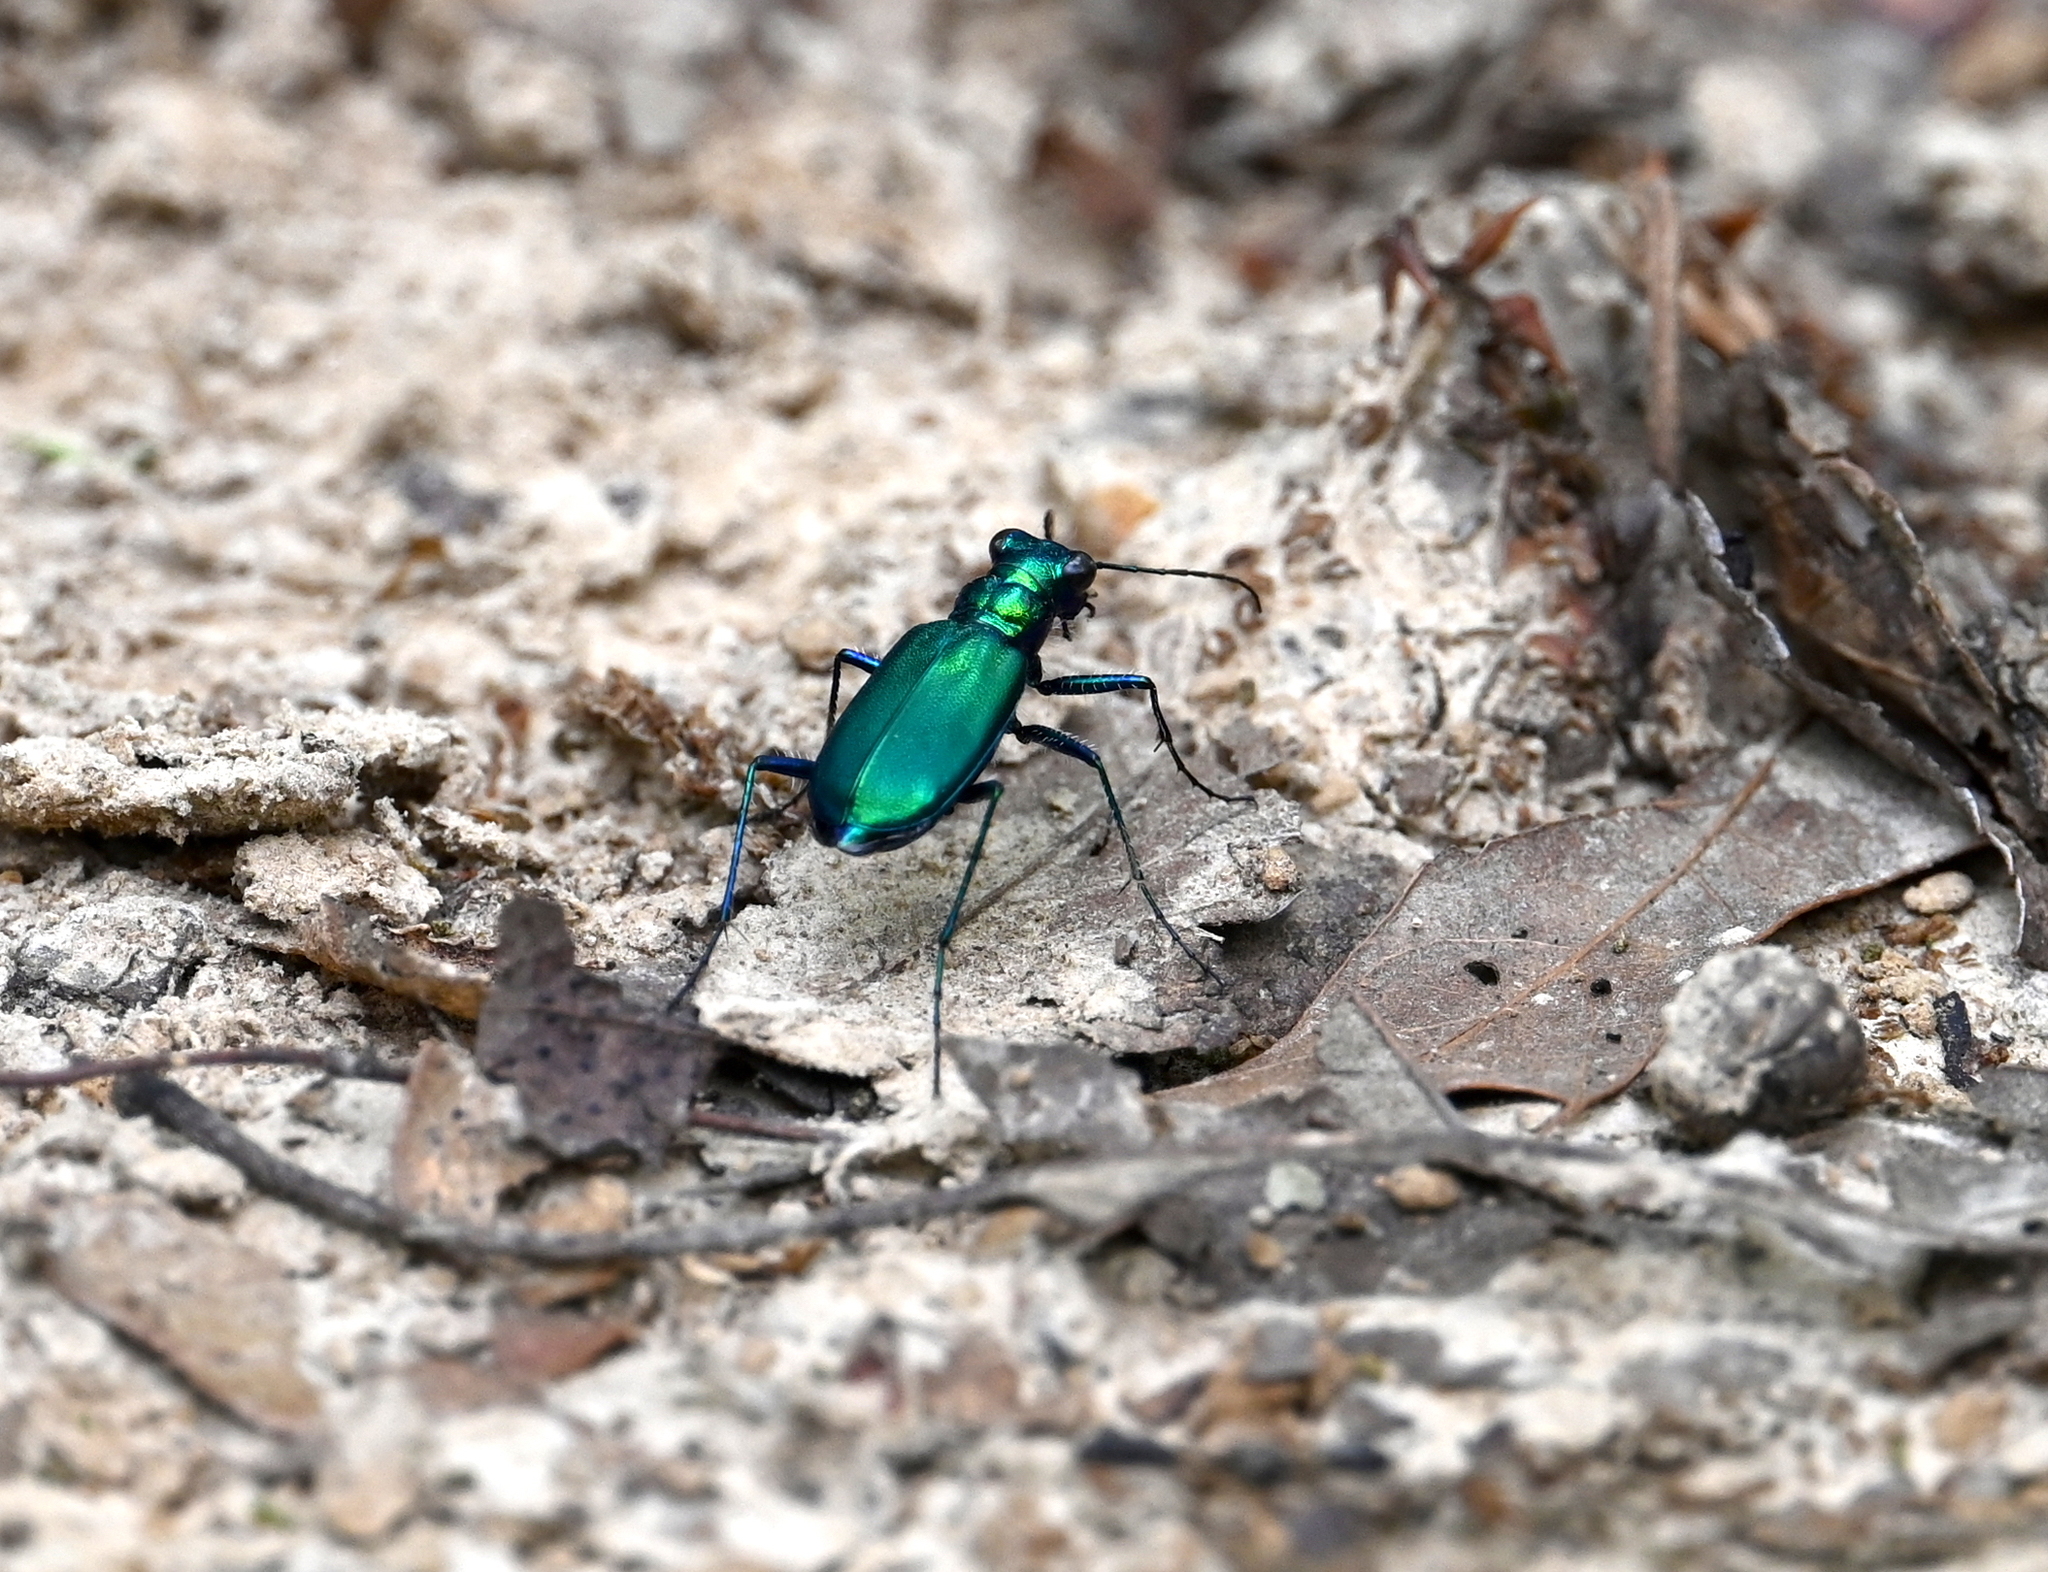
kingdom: Animalia
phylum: Arthropoda
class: Insecta
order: Coleoptera
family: Carabidae
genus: Cicindela
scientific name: Cicindela sexguttata
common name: Six-spotted tiger beetle
